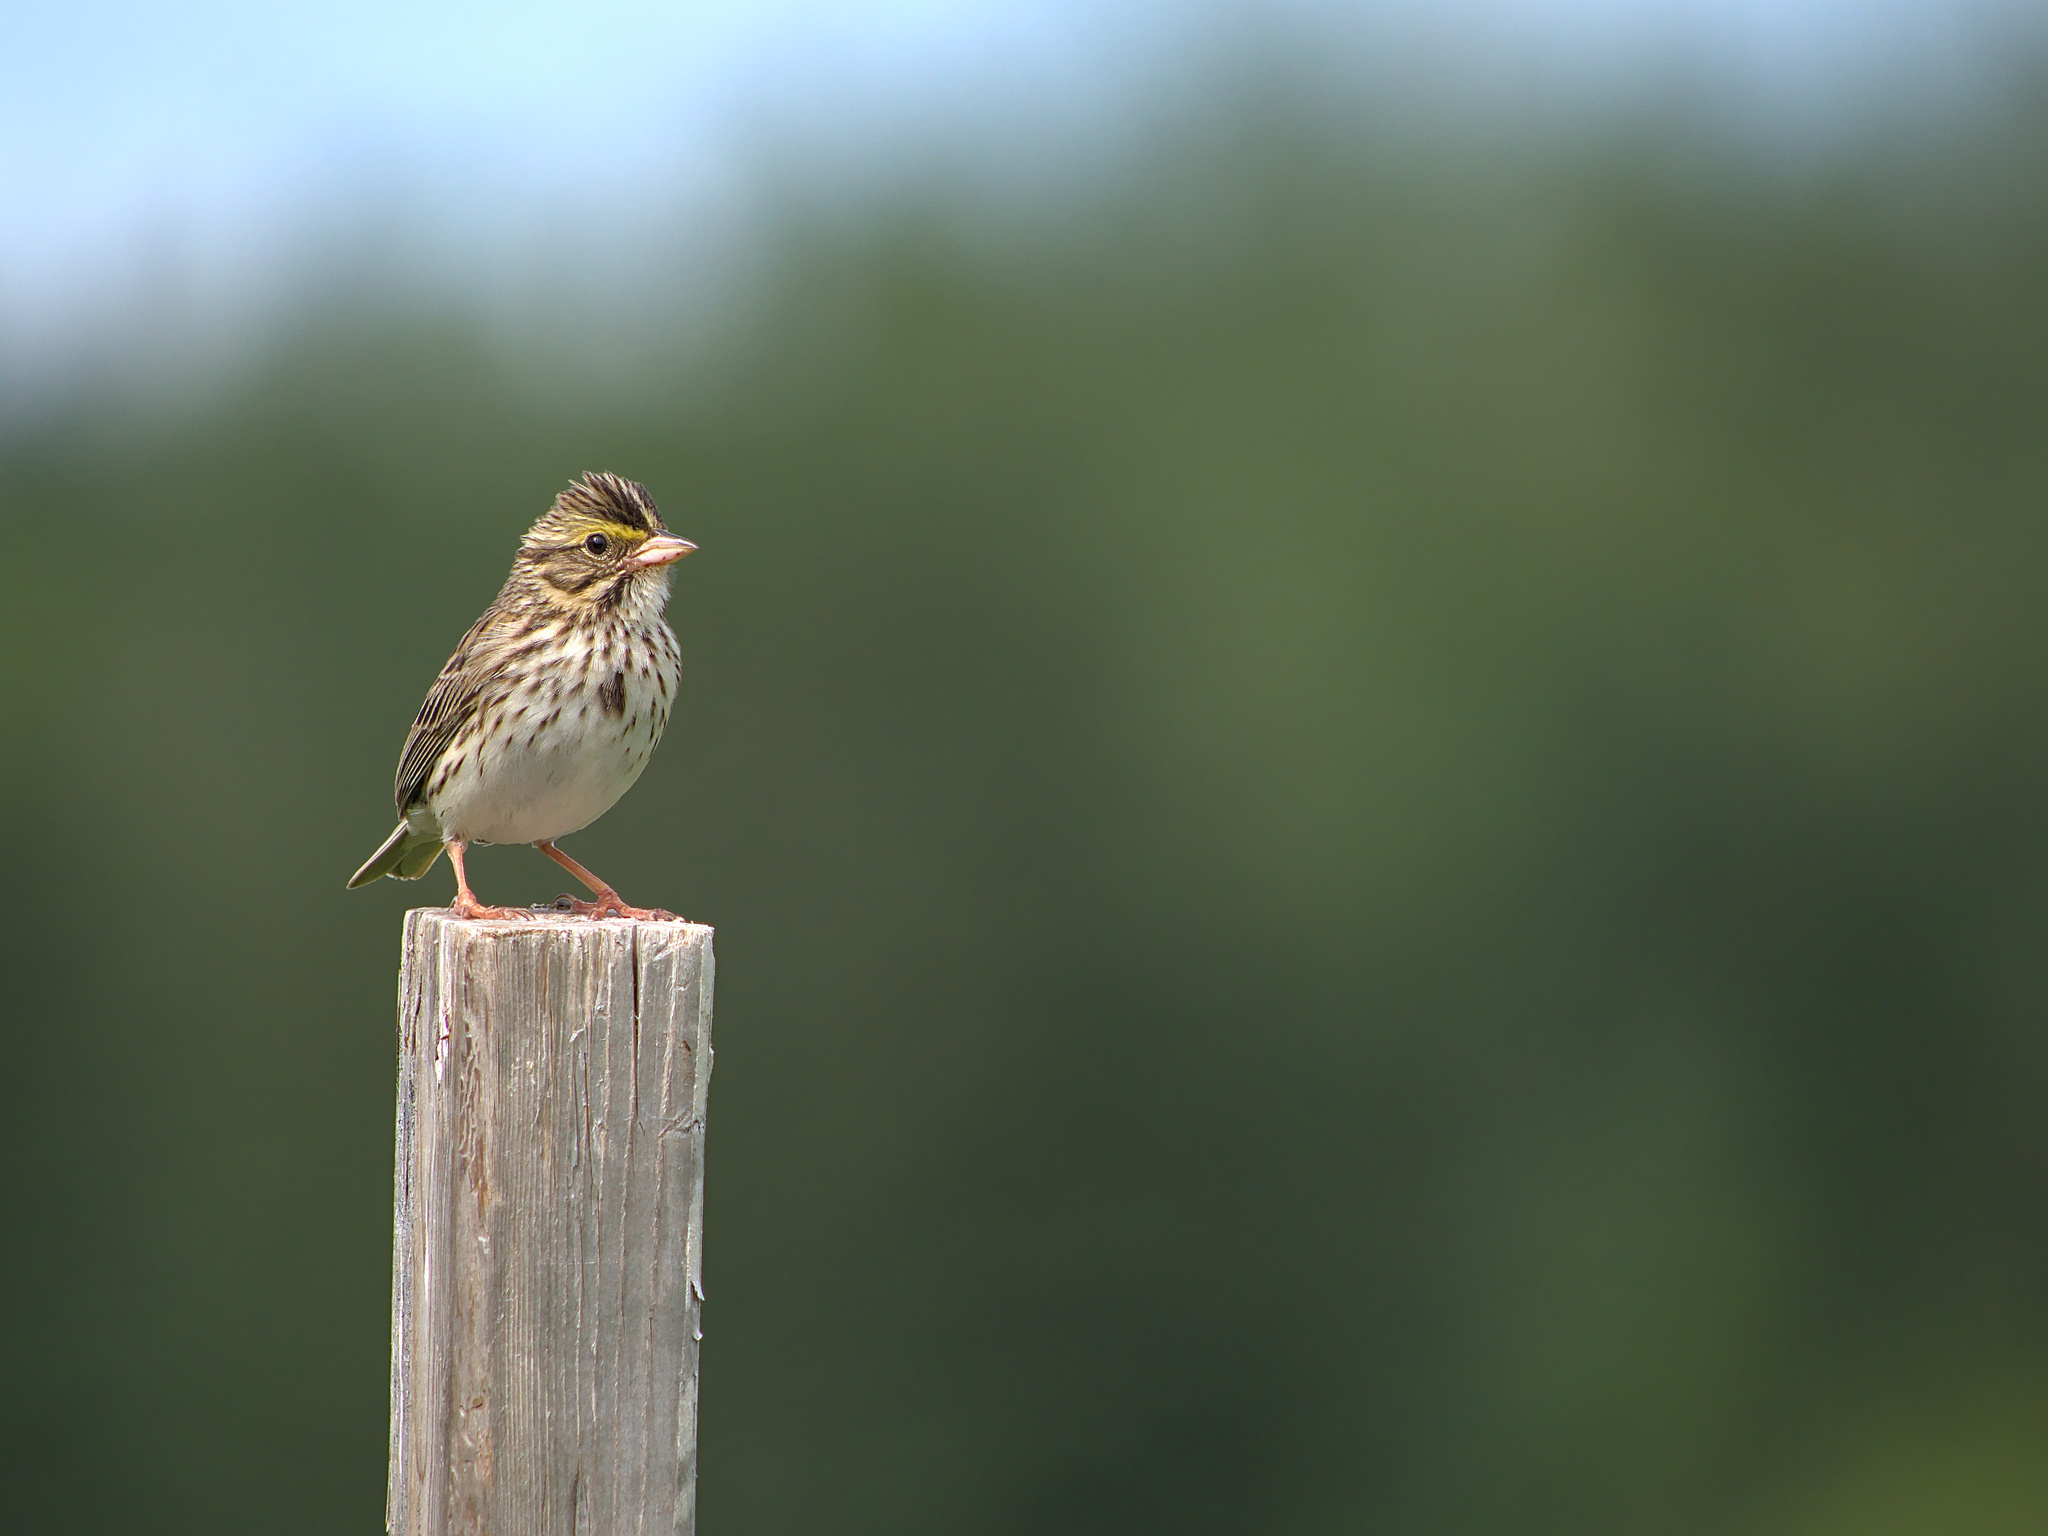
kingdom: Animalia
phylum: Chordata
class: Aves
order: Passeriformes
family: Passerellidae
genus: Passerculus
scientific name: Passerculus sandwichensis
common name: Savannah sparrow
